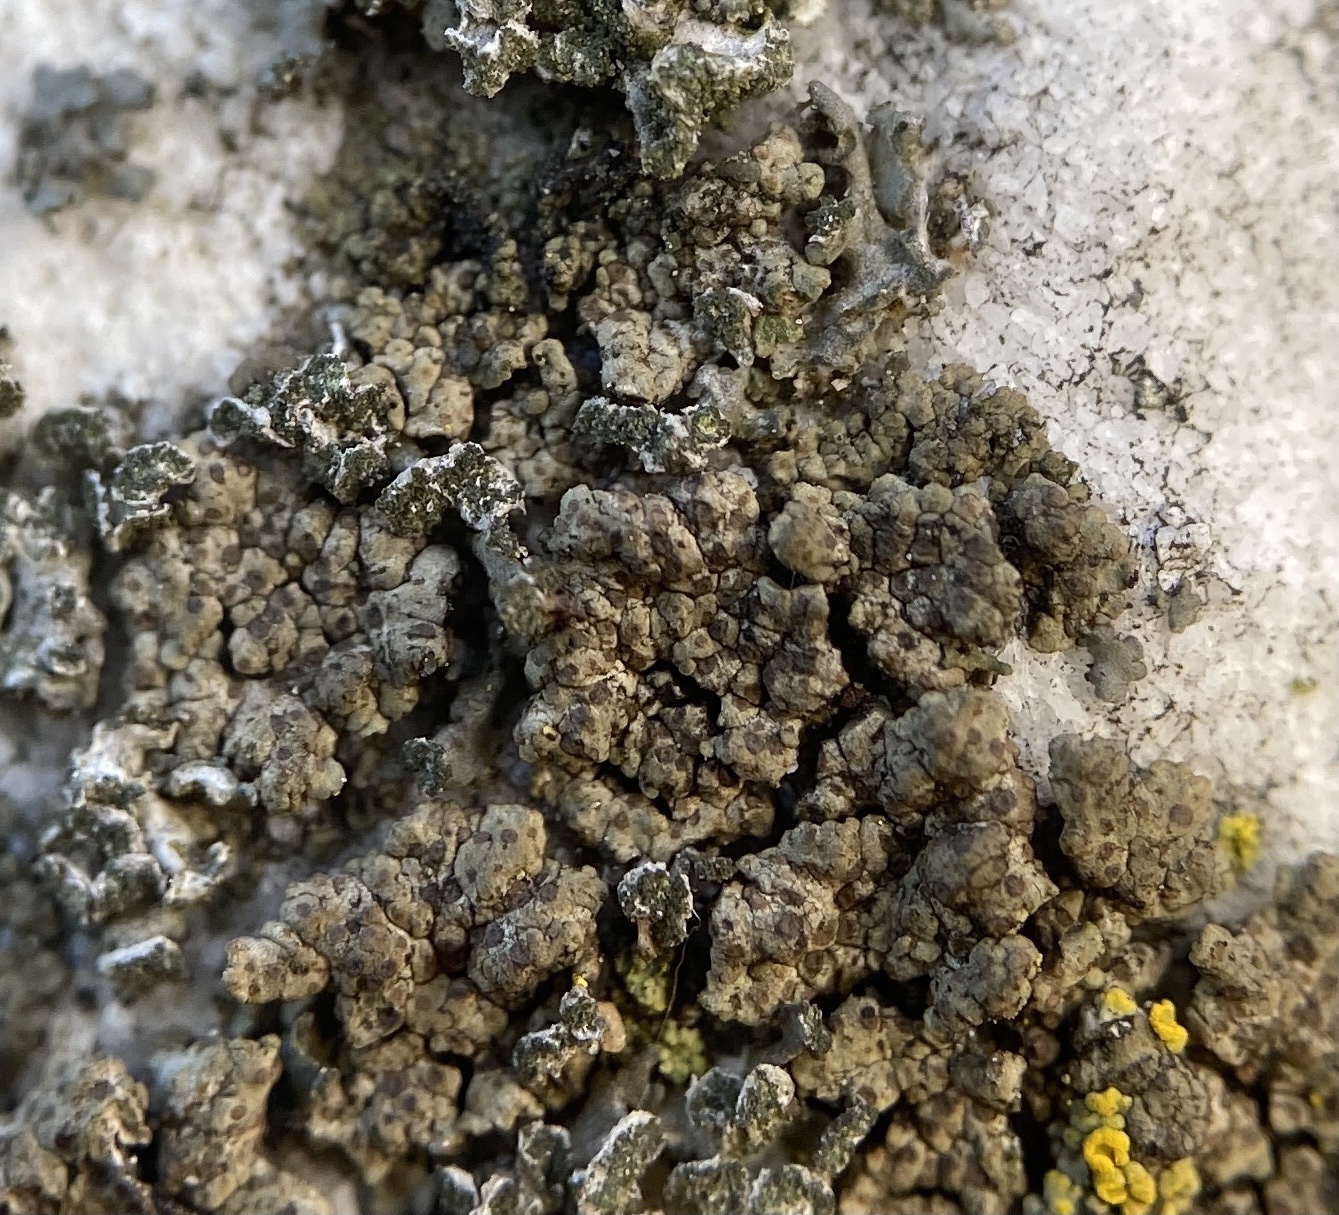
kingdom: Fungi
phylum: Ascomycota
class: Eurotiomycetes
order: Verrucariales
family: Verrucariaceae
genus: Endocarpon
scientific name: Endocarpon pallidulum
